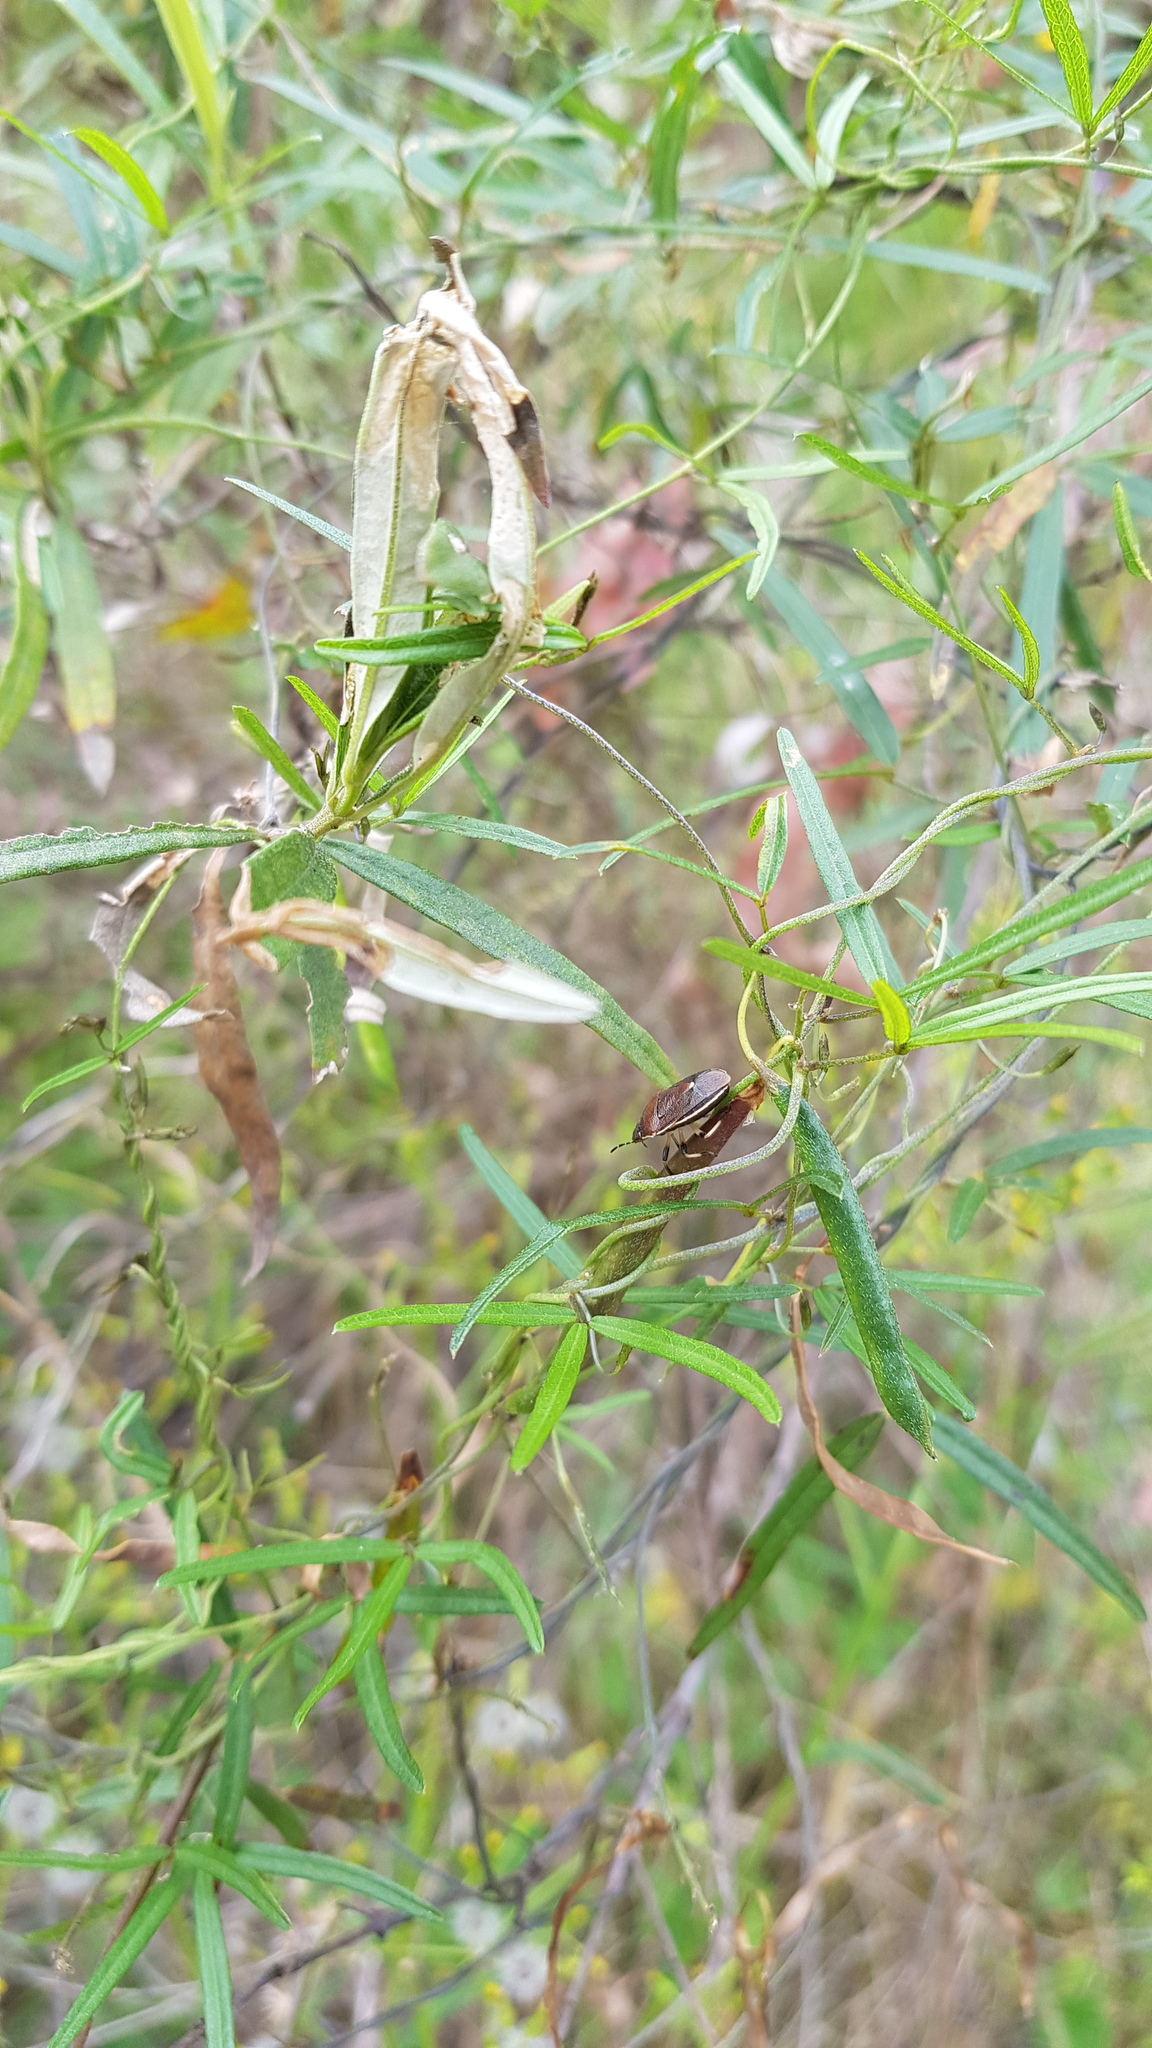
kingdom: Animalia
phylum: Arthropoda
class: Insecta
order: Hemiptera
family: Pentatomidae
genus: Lubentius
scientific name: Lubentius
